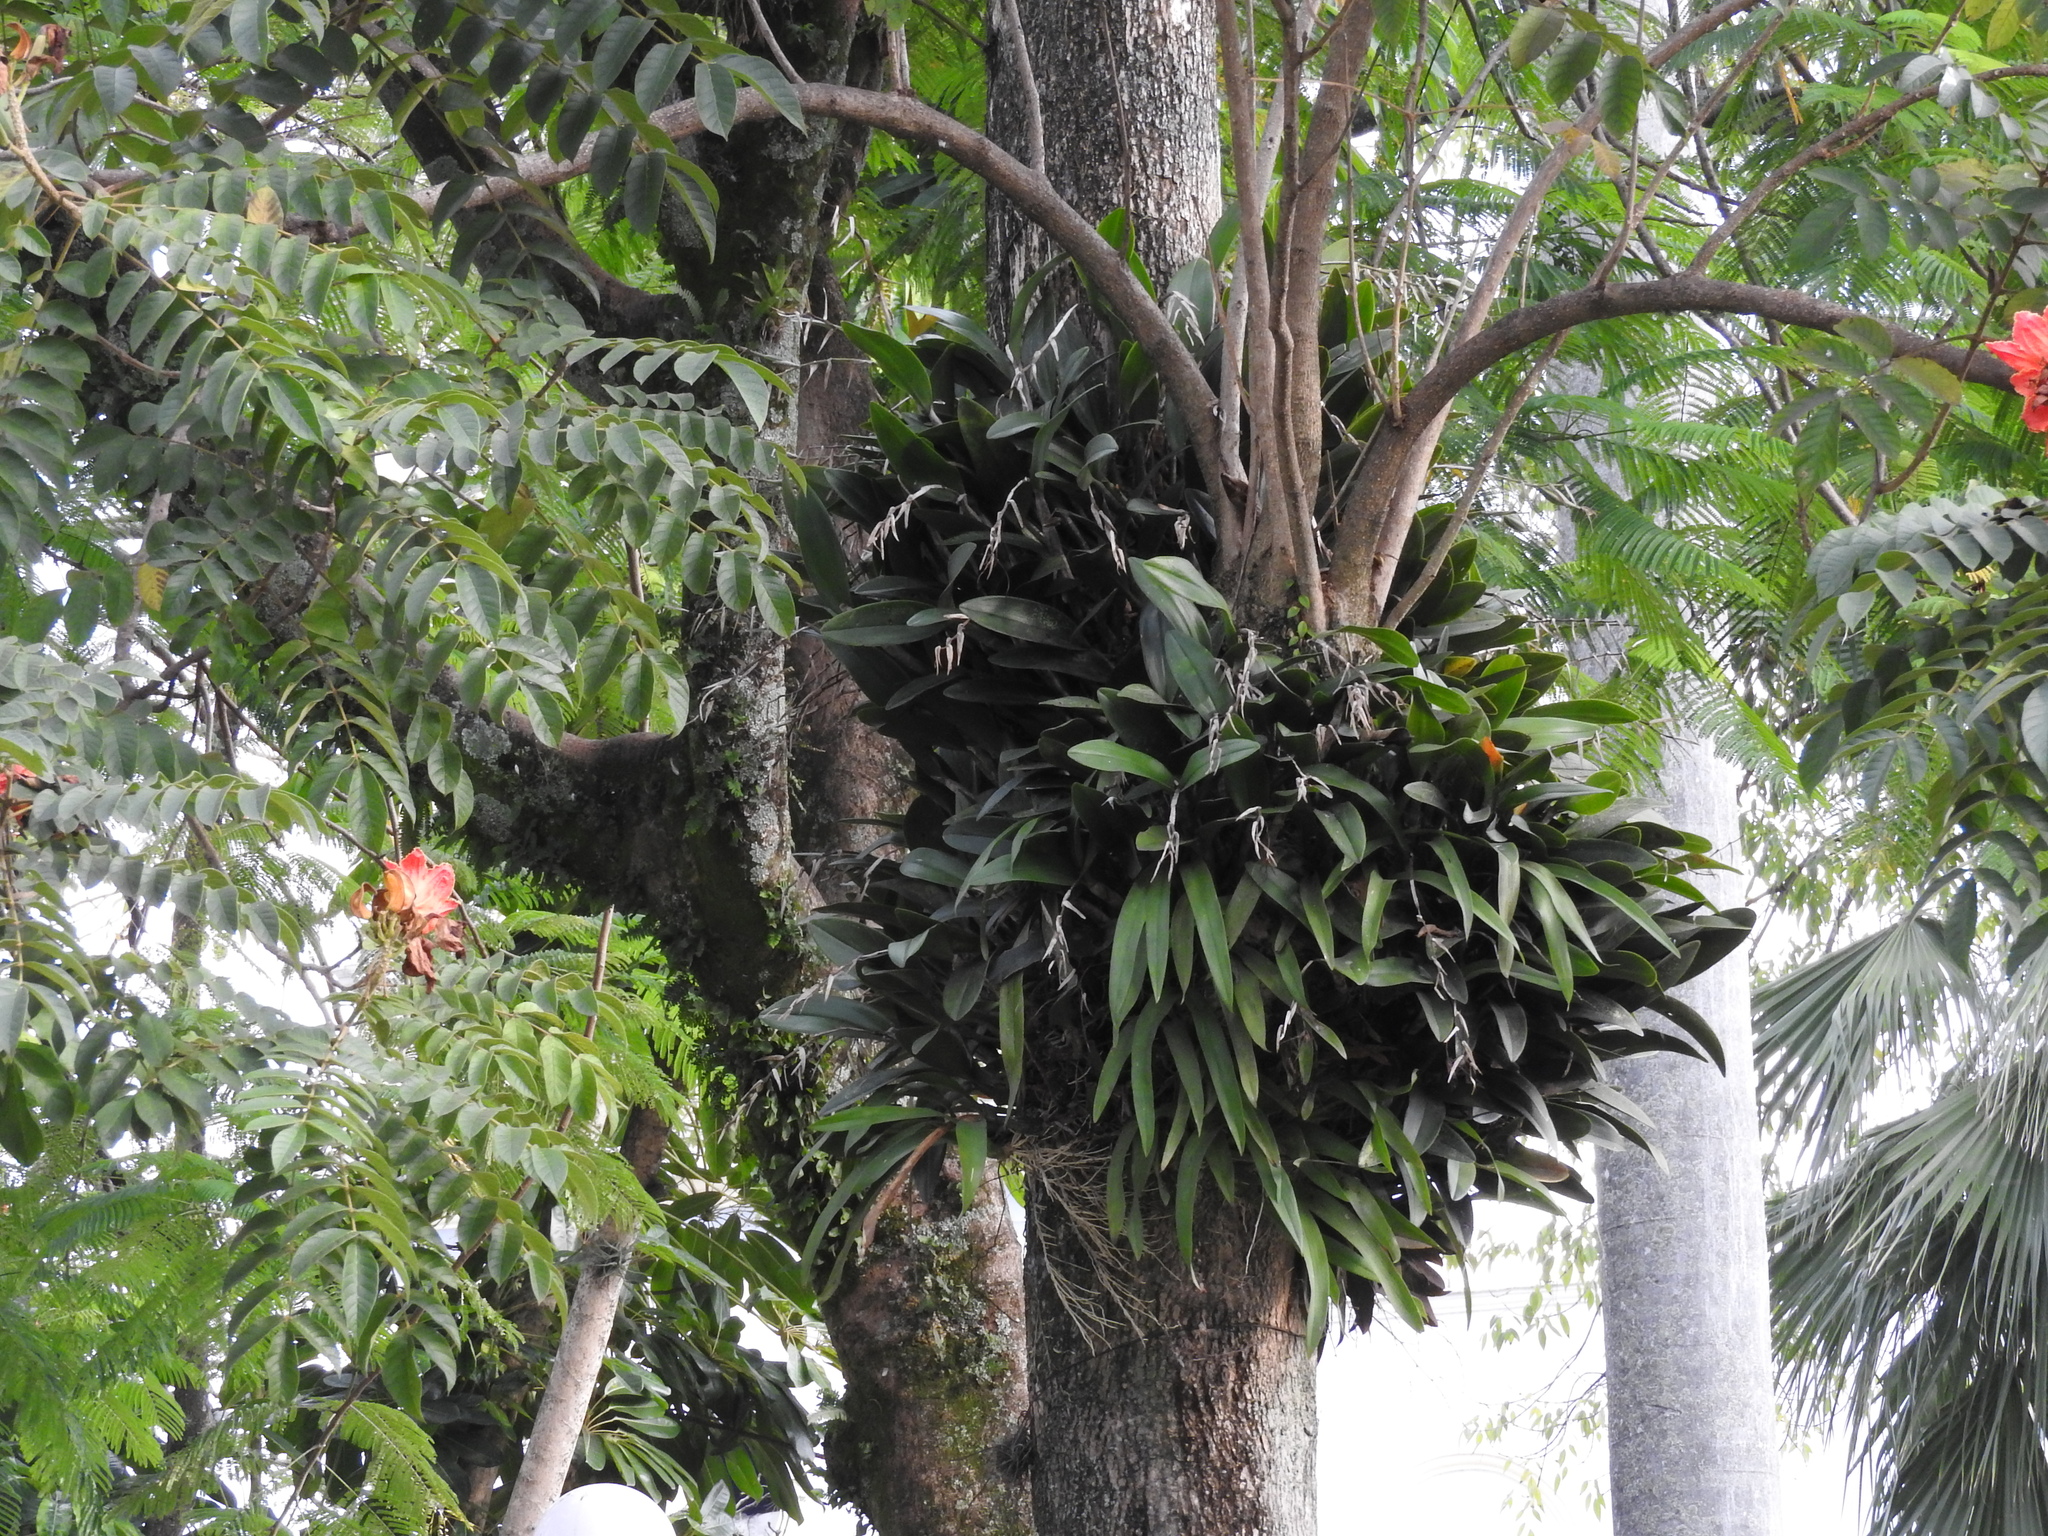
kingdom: Plantae
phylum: Tracheophyta
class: Liliopsida
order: Asparagales
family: Orchidaceae
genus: Epidendrum
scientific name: Epidendrum ciliare
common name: Eyelash orchid
